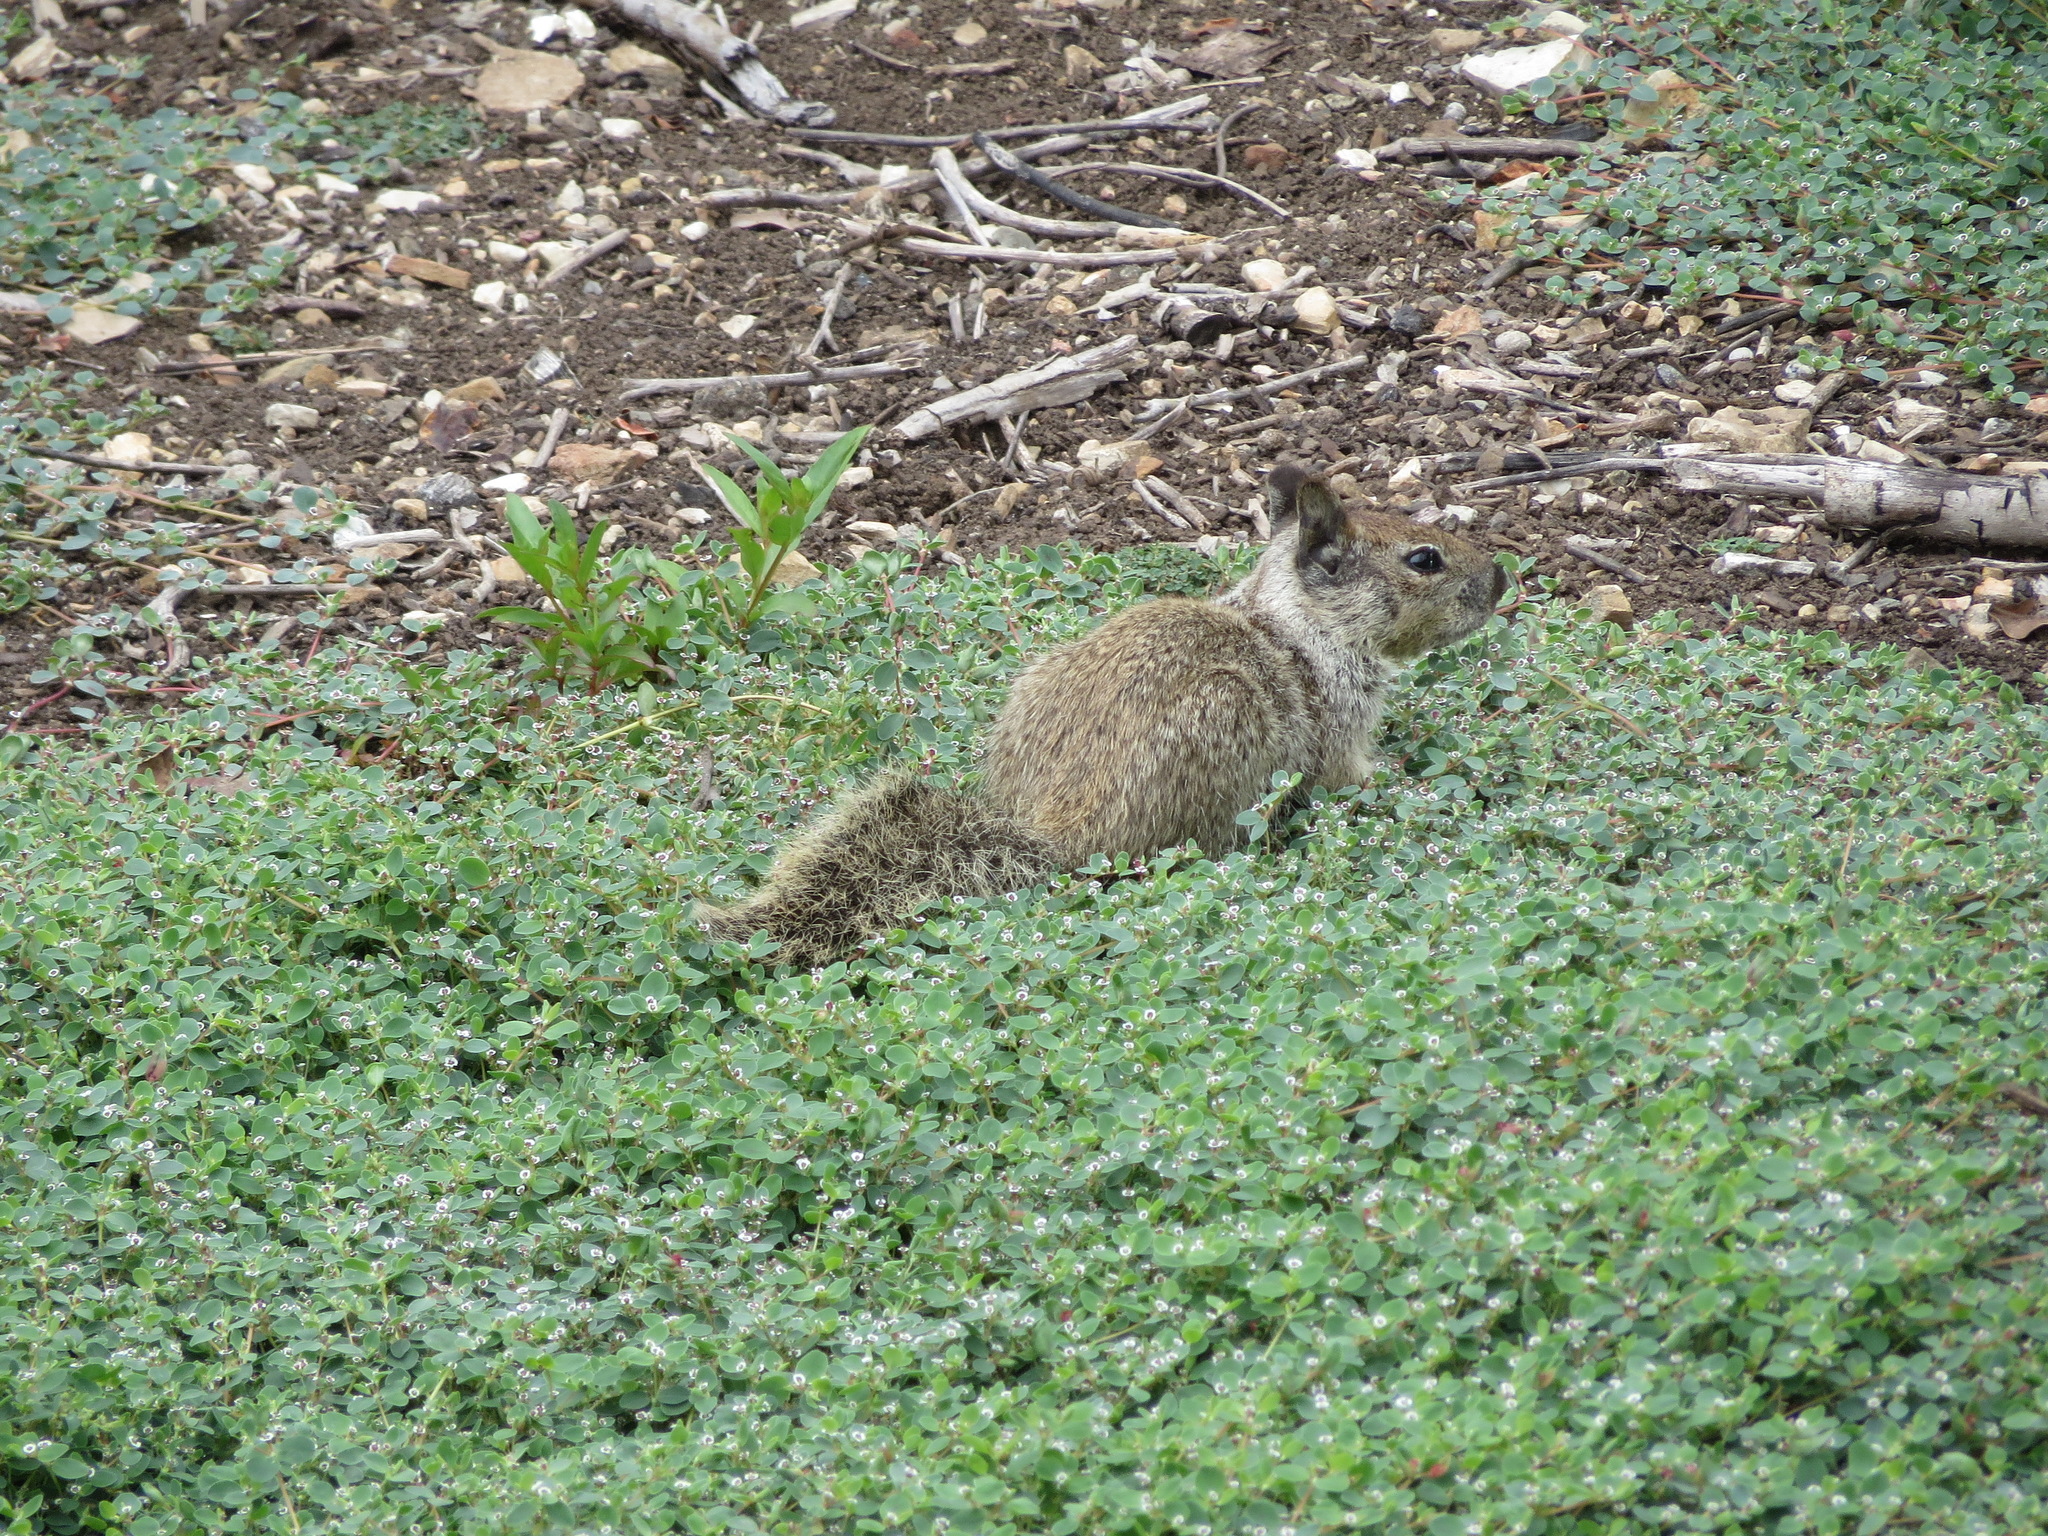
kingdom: Animalia
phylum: Chordata
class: Mammalia
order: Rodentia
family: Sciuridae
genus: Otospermophilus
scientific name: Otospermophilus beecheyi
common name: California ground squirrel
